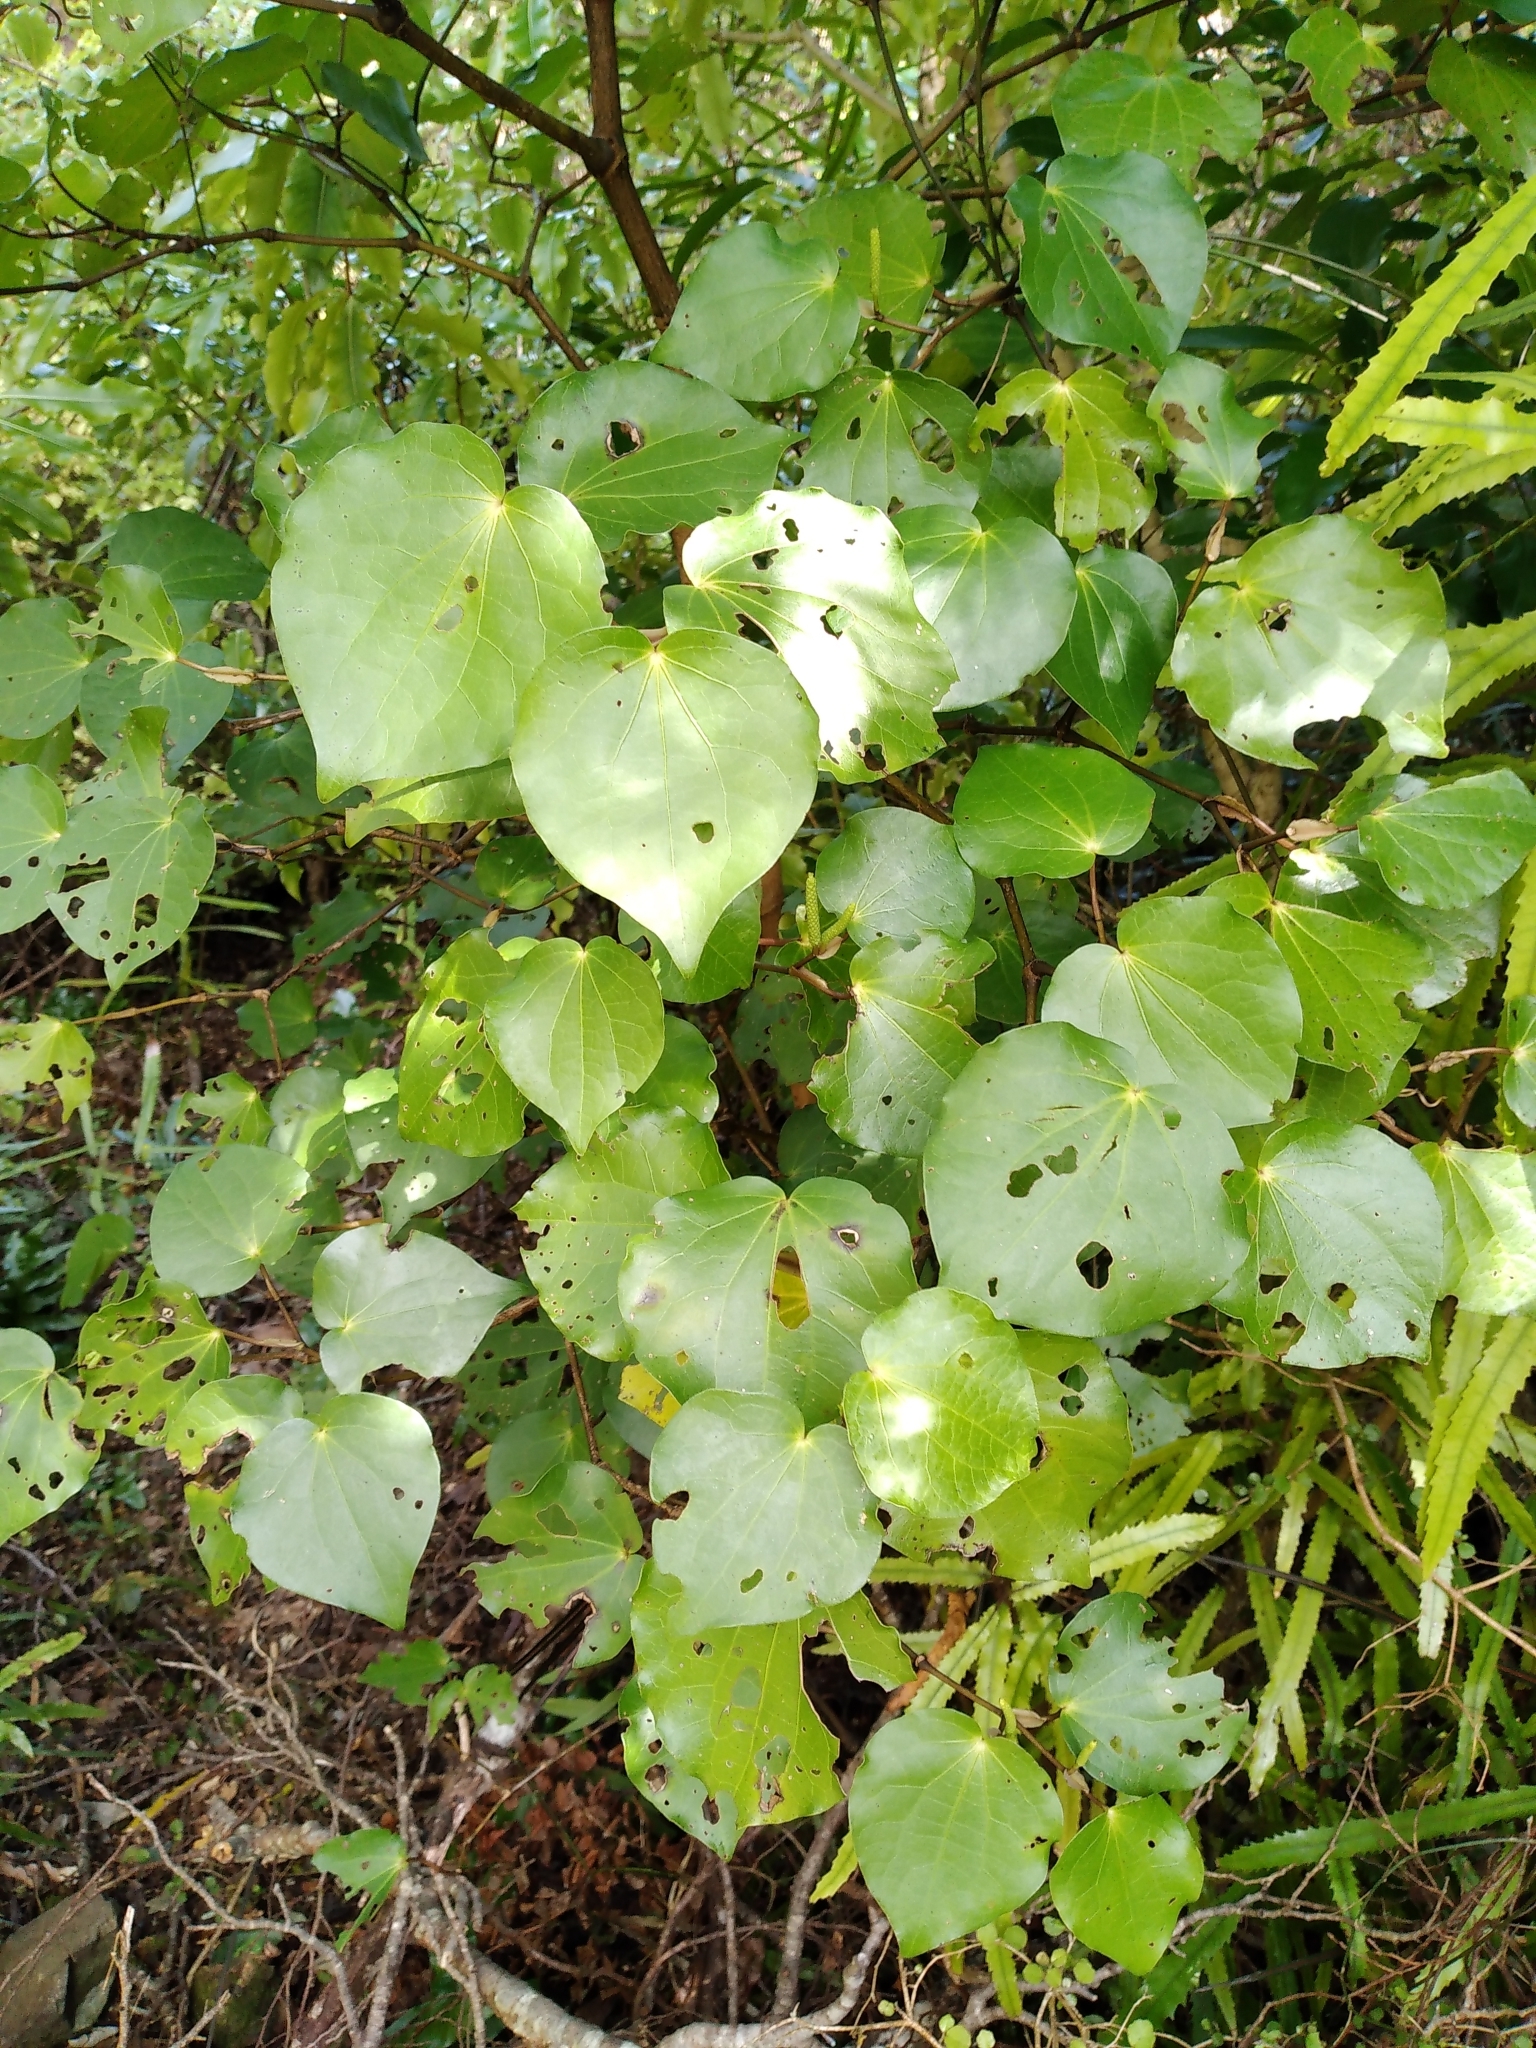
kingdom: Plantae
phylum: Tracheophyta
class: Magnoliopsida
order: Piperales
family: Piperaceae
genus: Macropiper
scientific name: Macropiper excelsum
